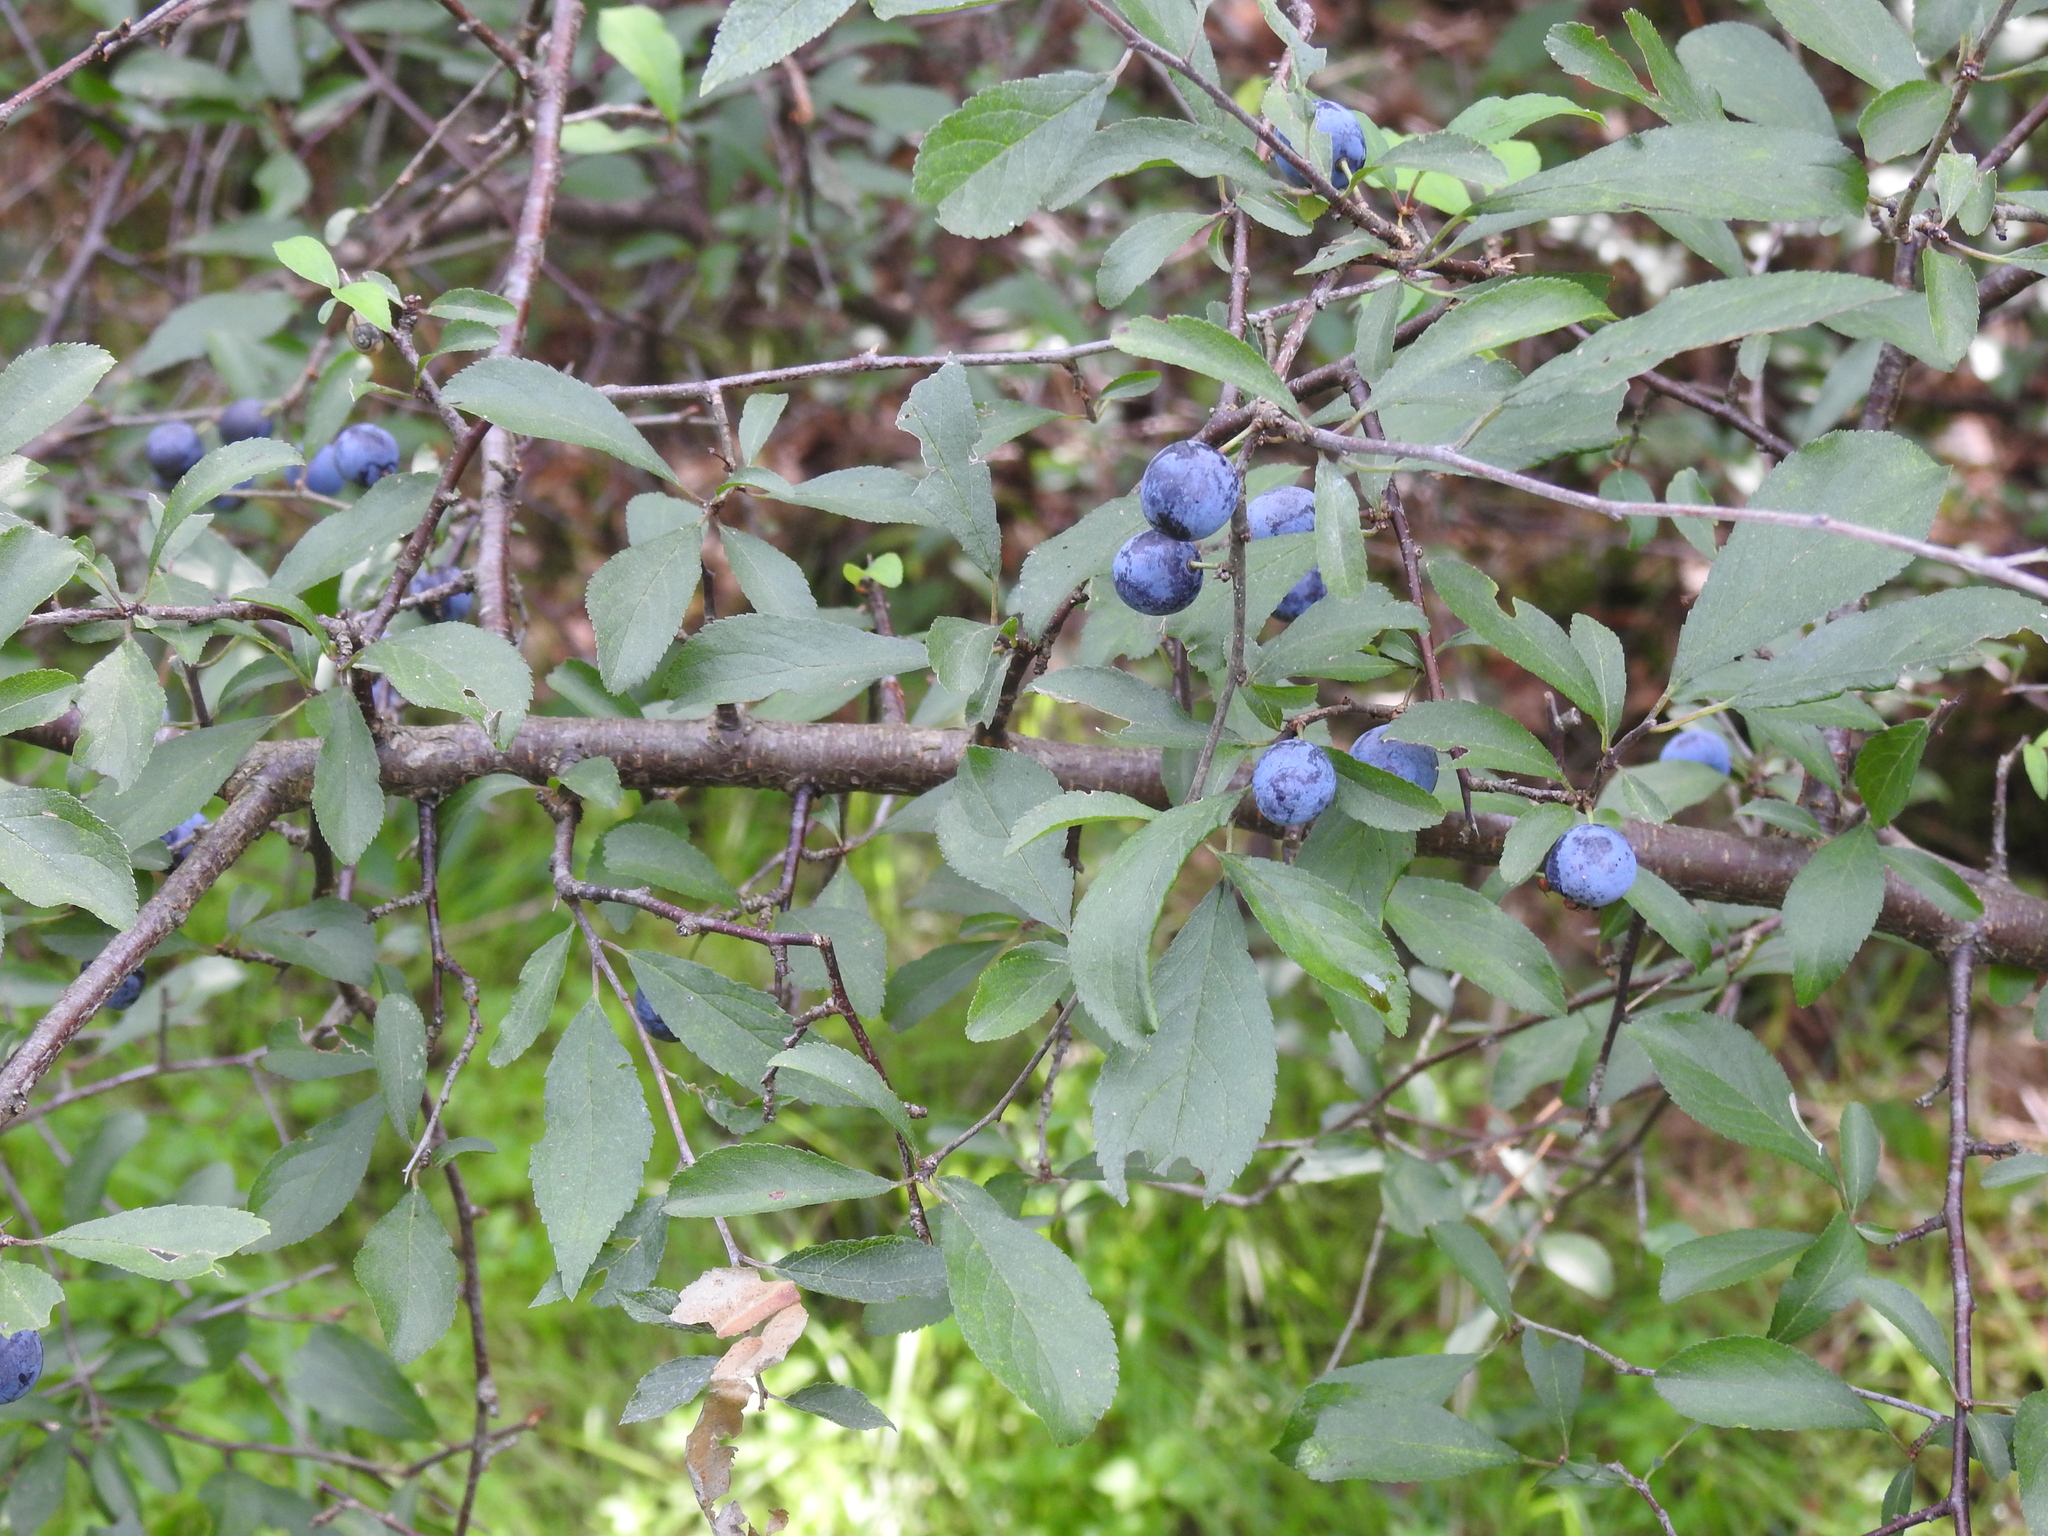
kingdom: Plantae
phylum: Tracheophyta
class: Magnoliopsida
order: Rosales
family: Rosaceae
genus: Prunus
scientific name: Prunus spinosa
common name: Blackthorn
